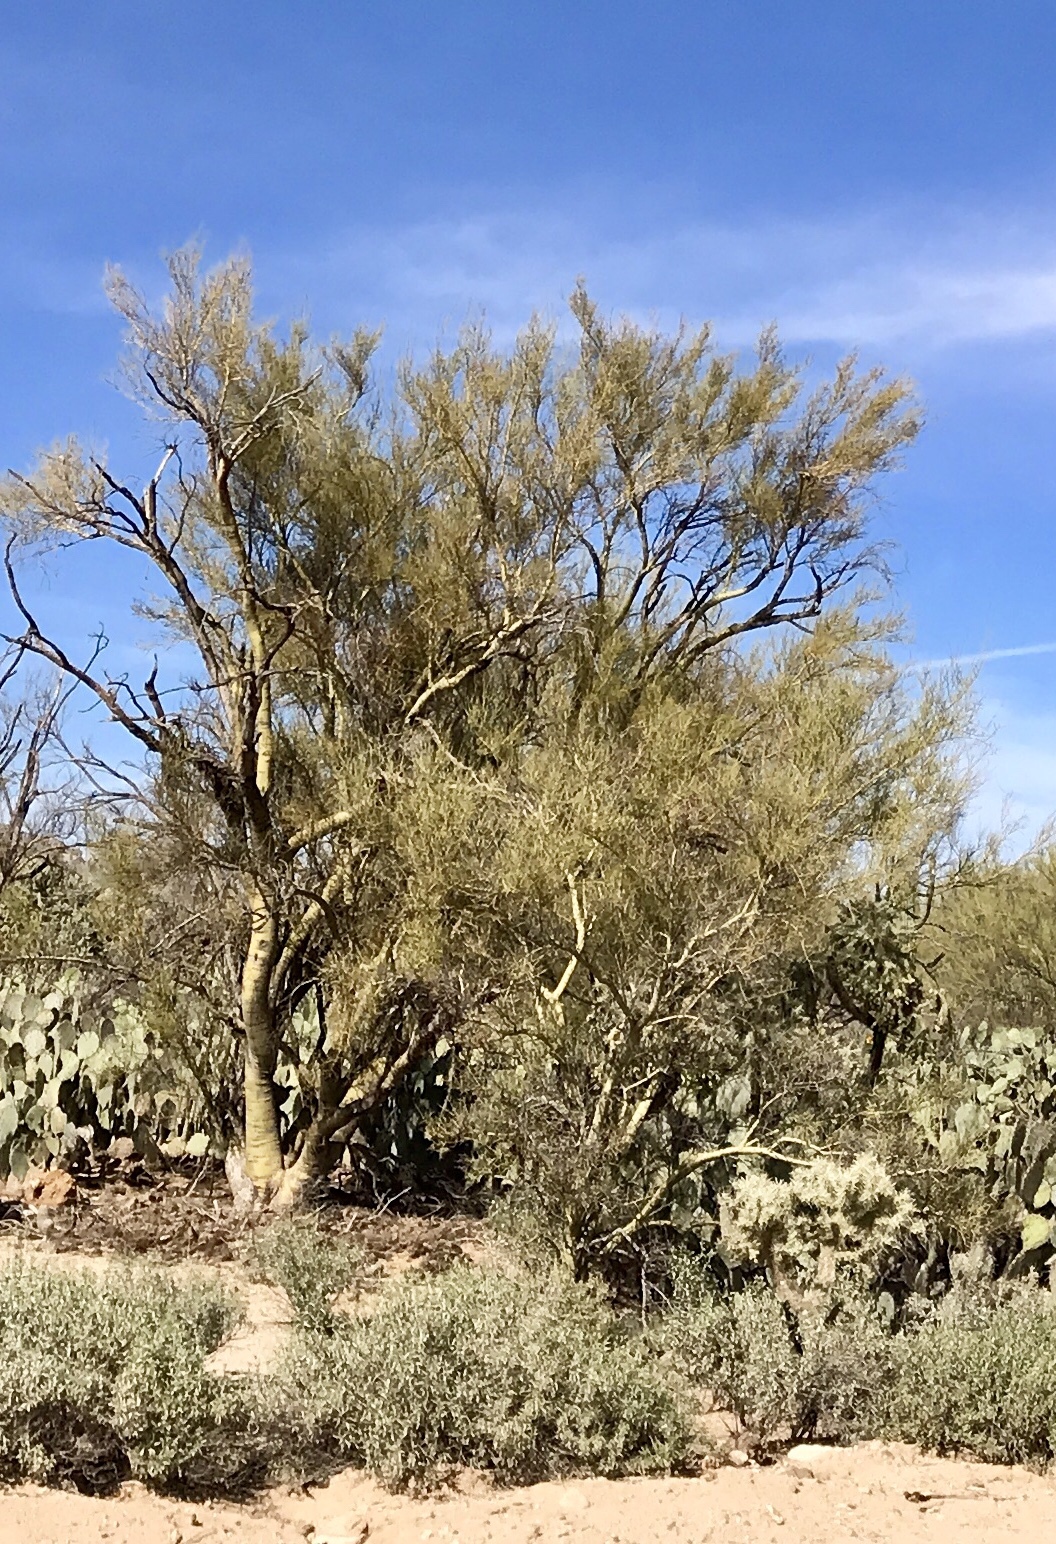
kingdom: Plantae
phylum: Tracheophyta
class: Magnoliopsida
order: Fabales
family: Fabaceae
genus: Parkinsonia
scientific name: Parkinsonia microphylla
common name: Yellow paloverde
